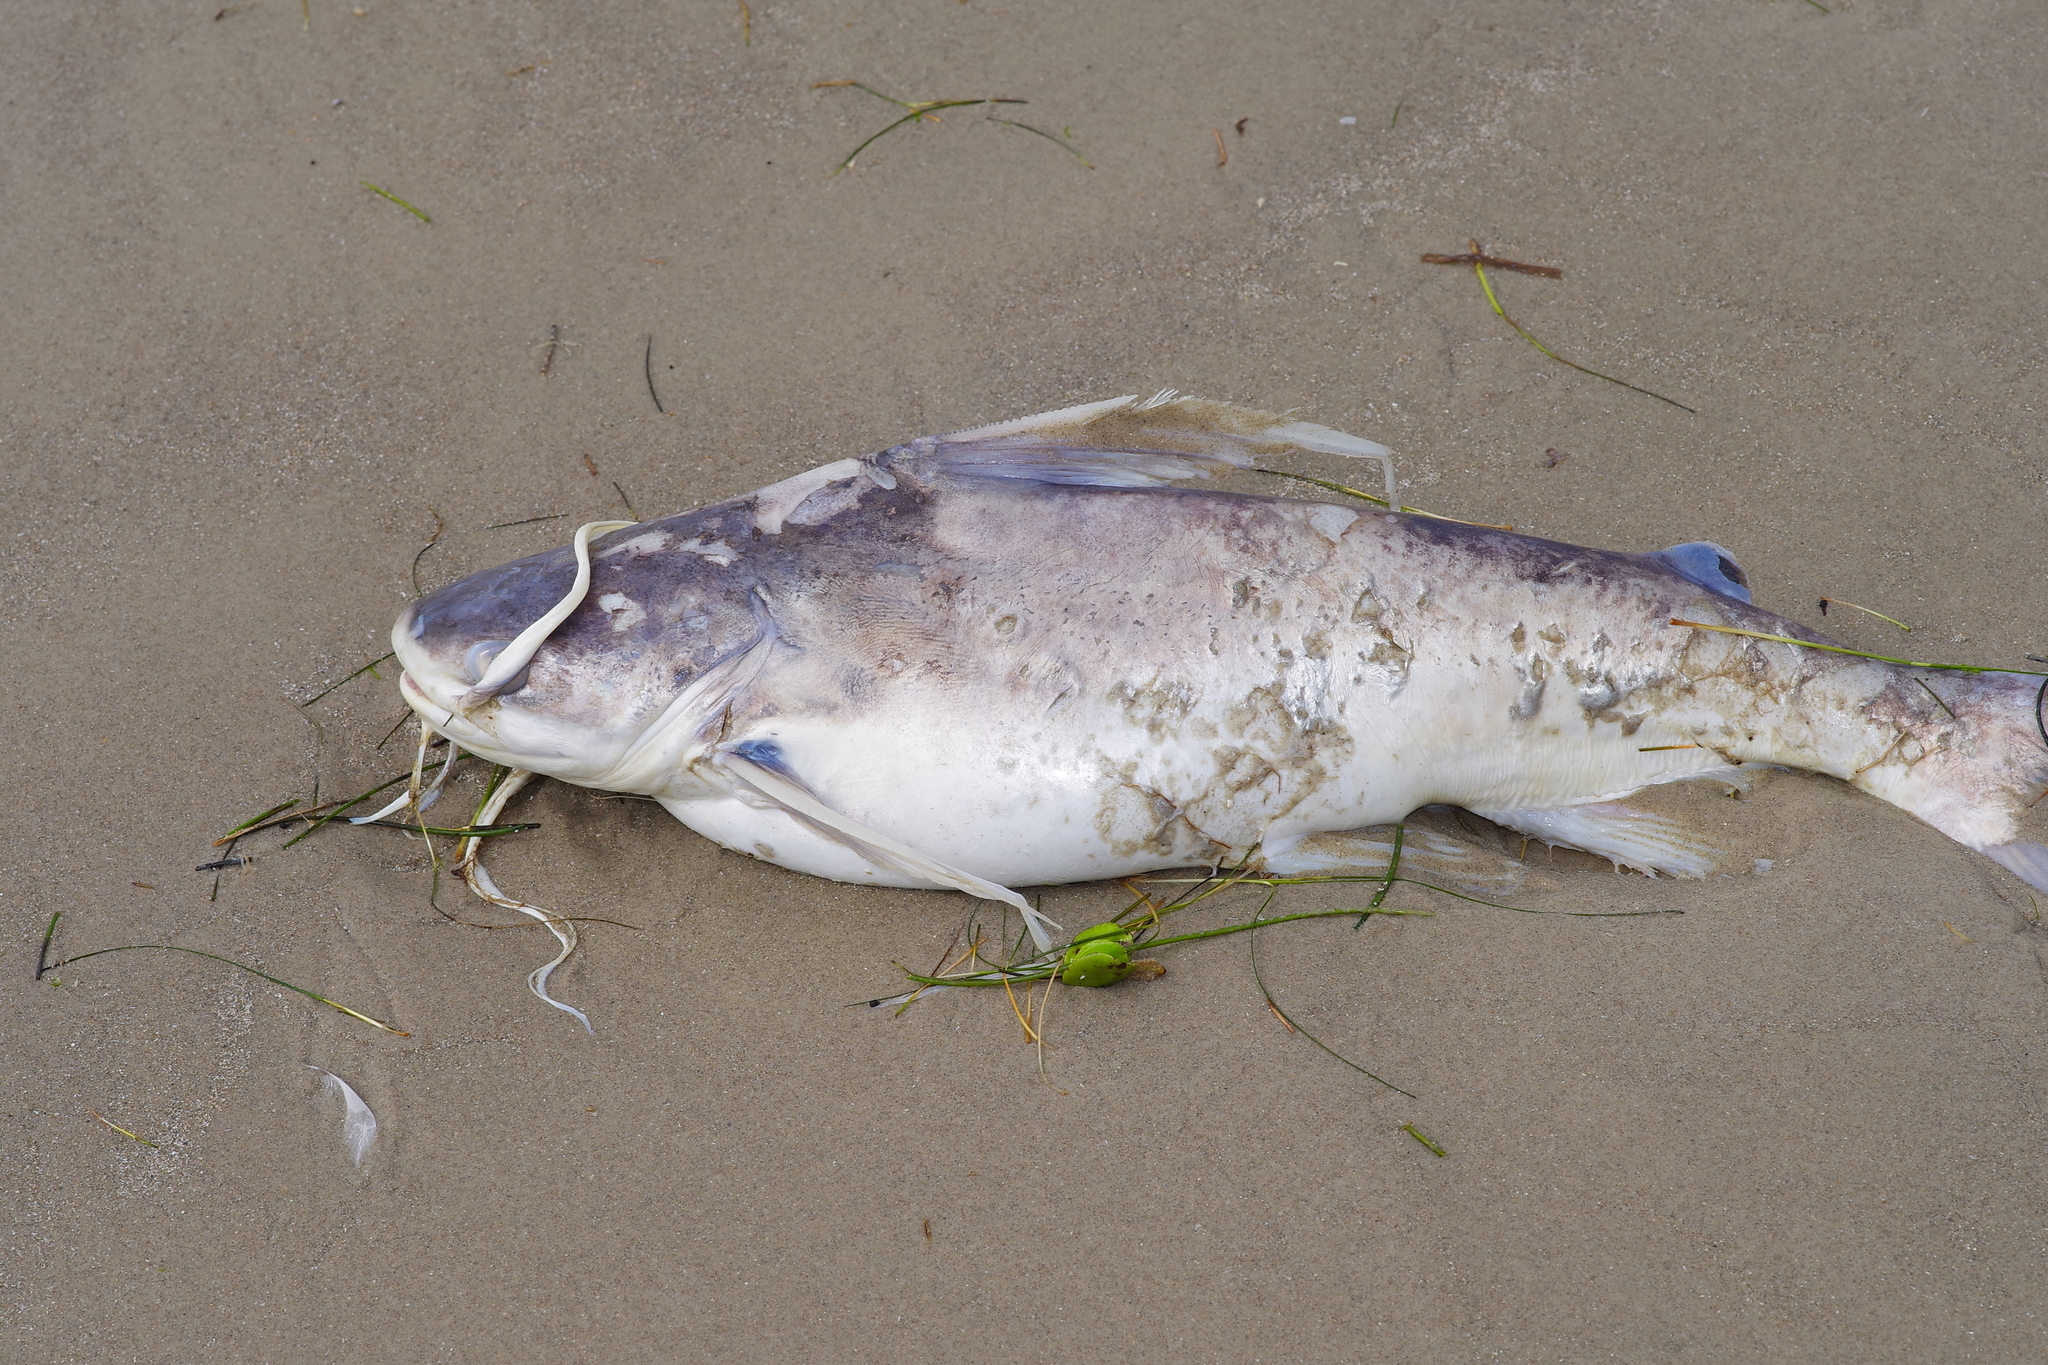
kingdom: Animalia
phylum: Chordata
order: Siluriformes
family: Ariidae
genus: Bagre
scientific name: Bagre marinus
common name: Gafftopsail sea catfish
